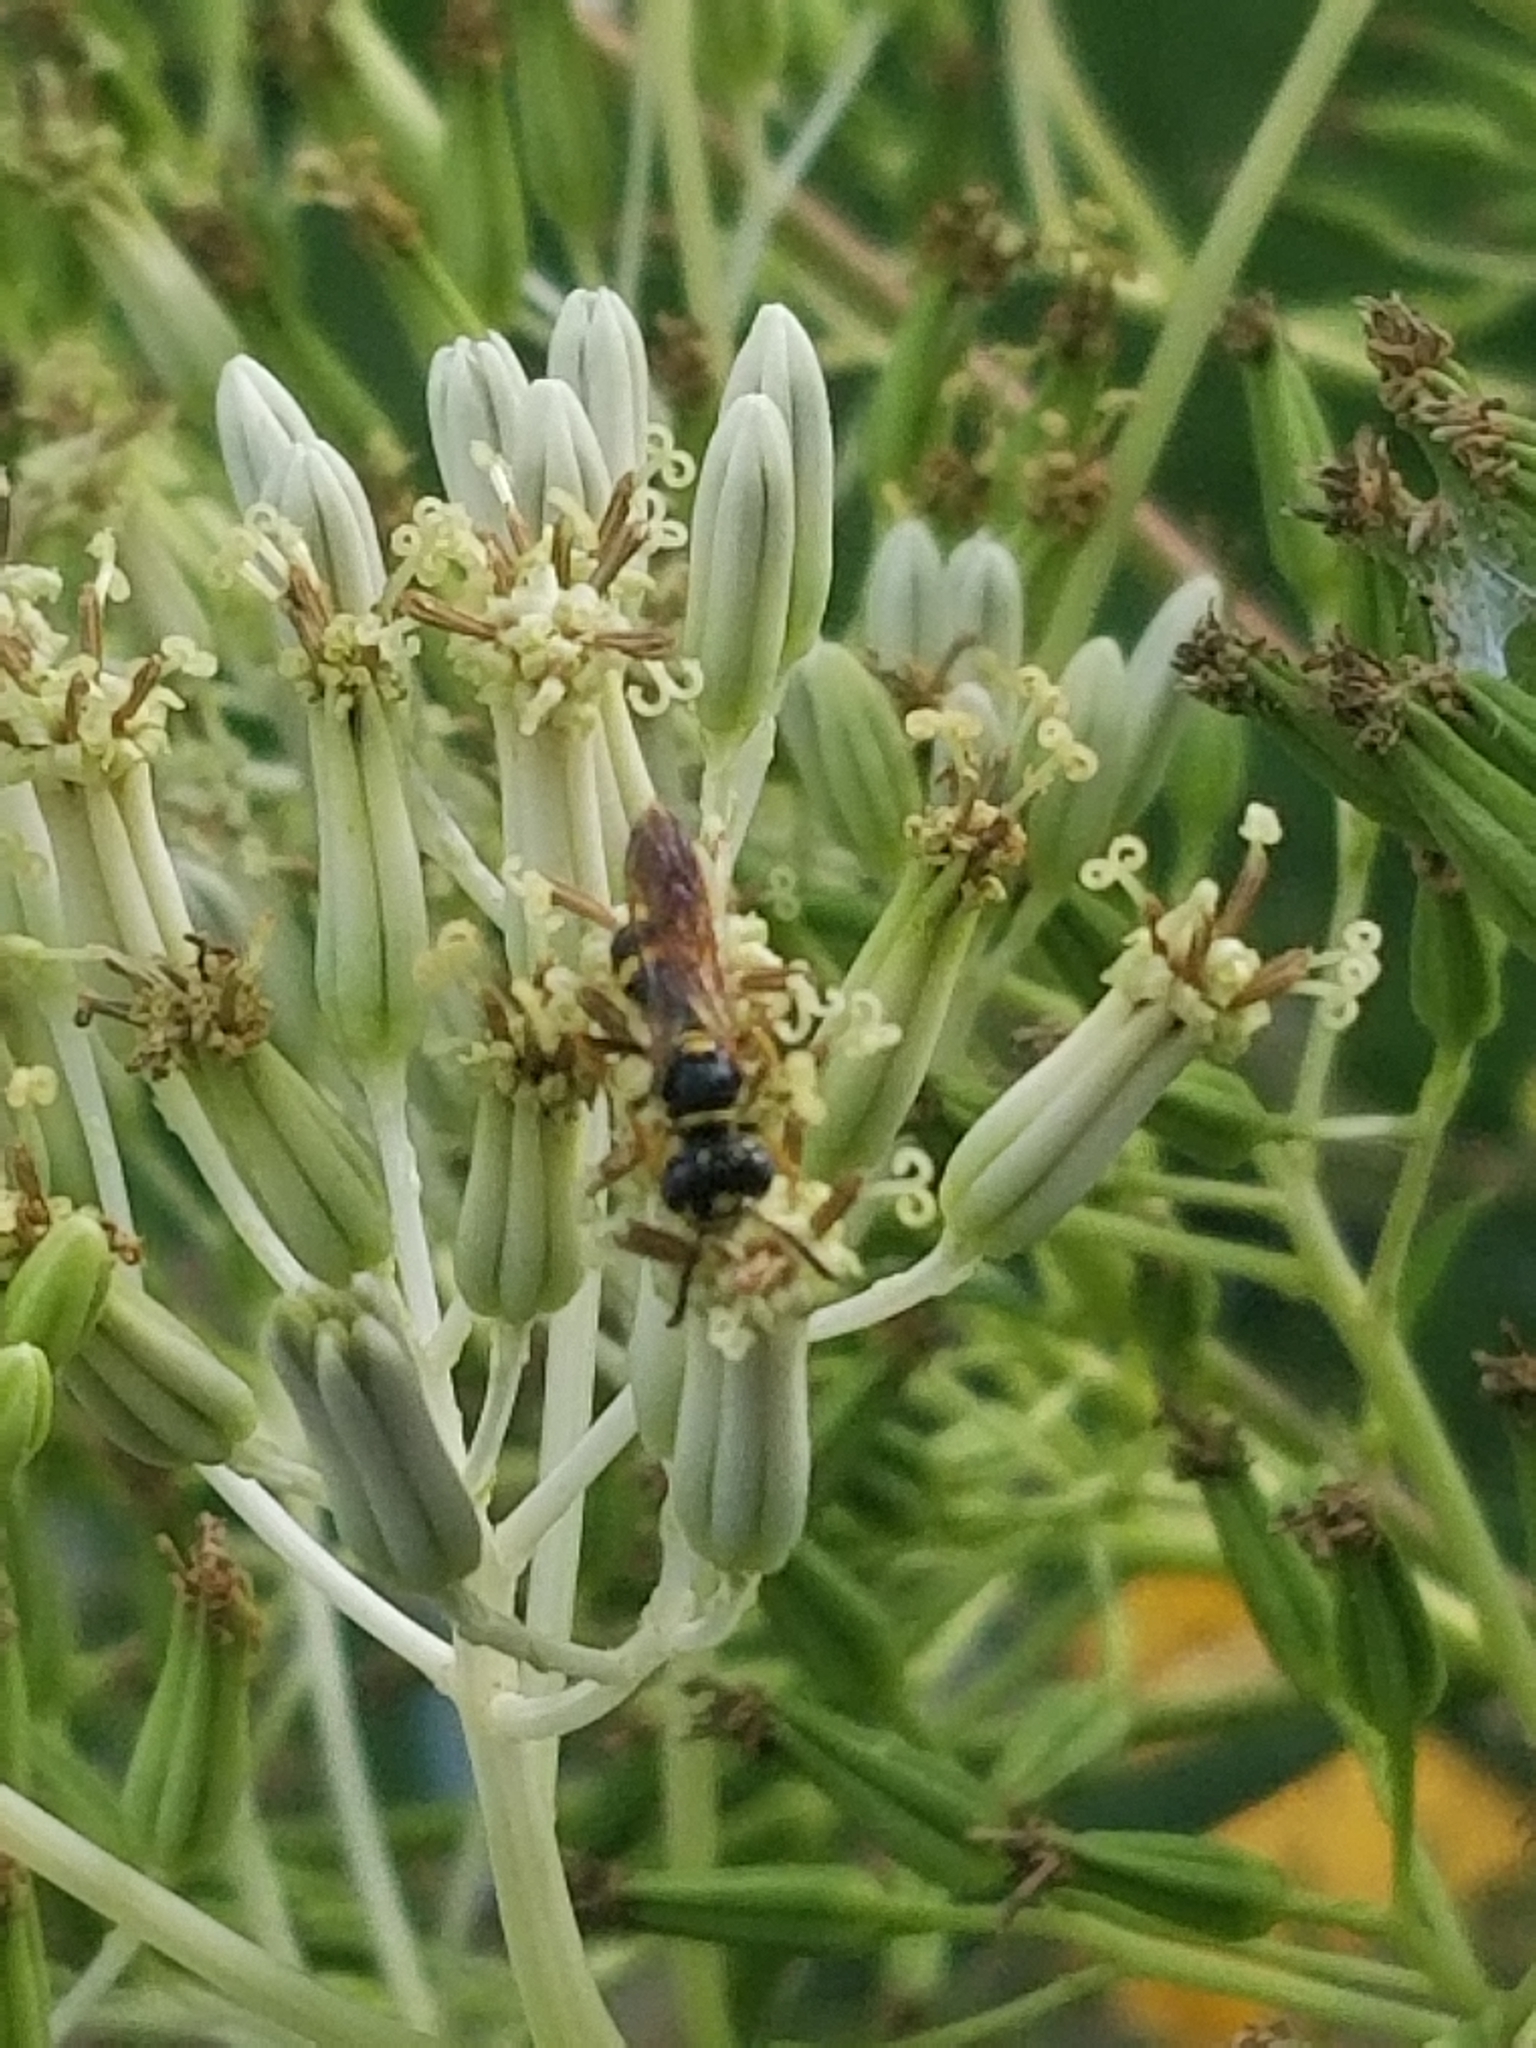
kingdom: Animalia
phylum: Arthropoda
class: Insecta
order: Hymenoptera
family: Crabronidae
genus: Philanthus
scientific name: Philanthus gibbosus
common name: Humped beewolf
